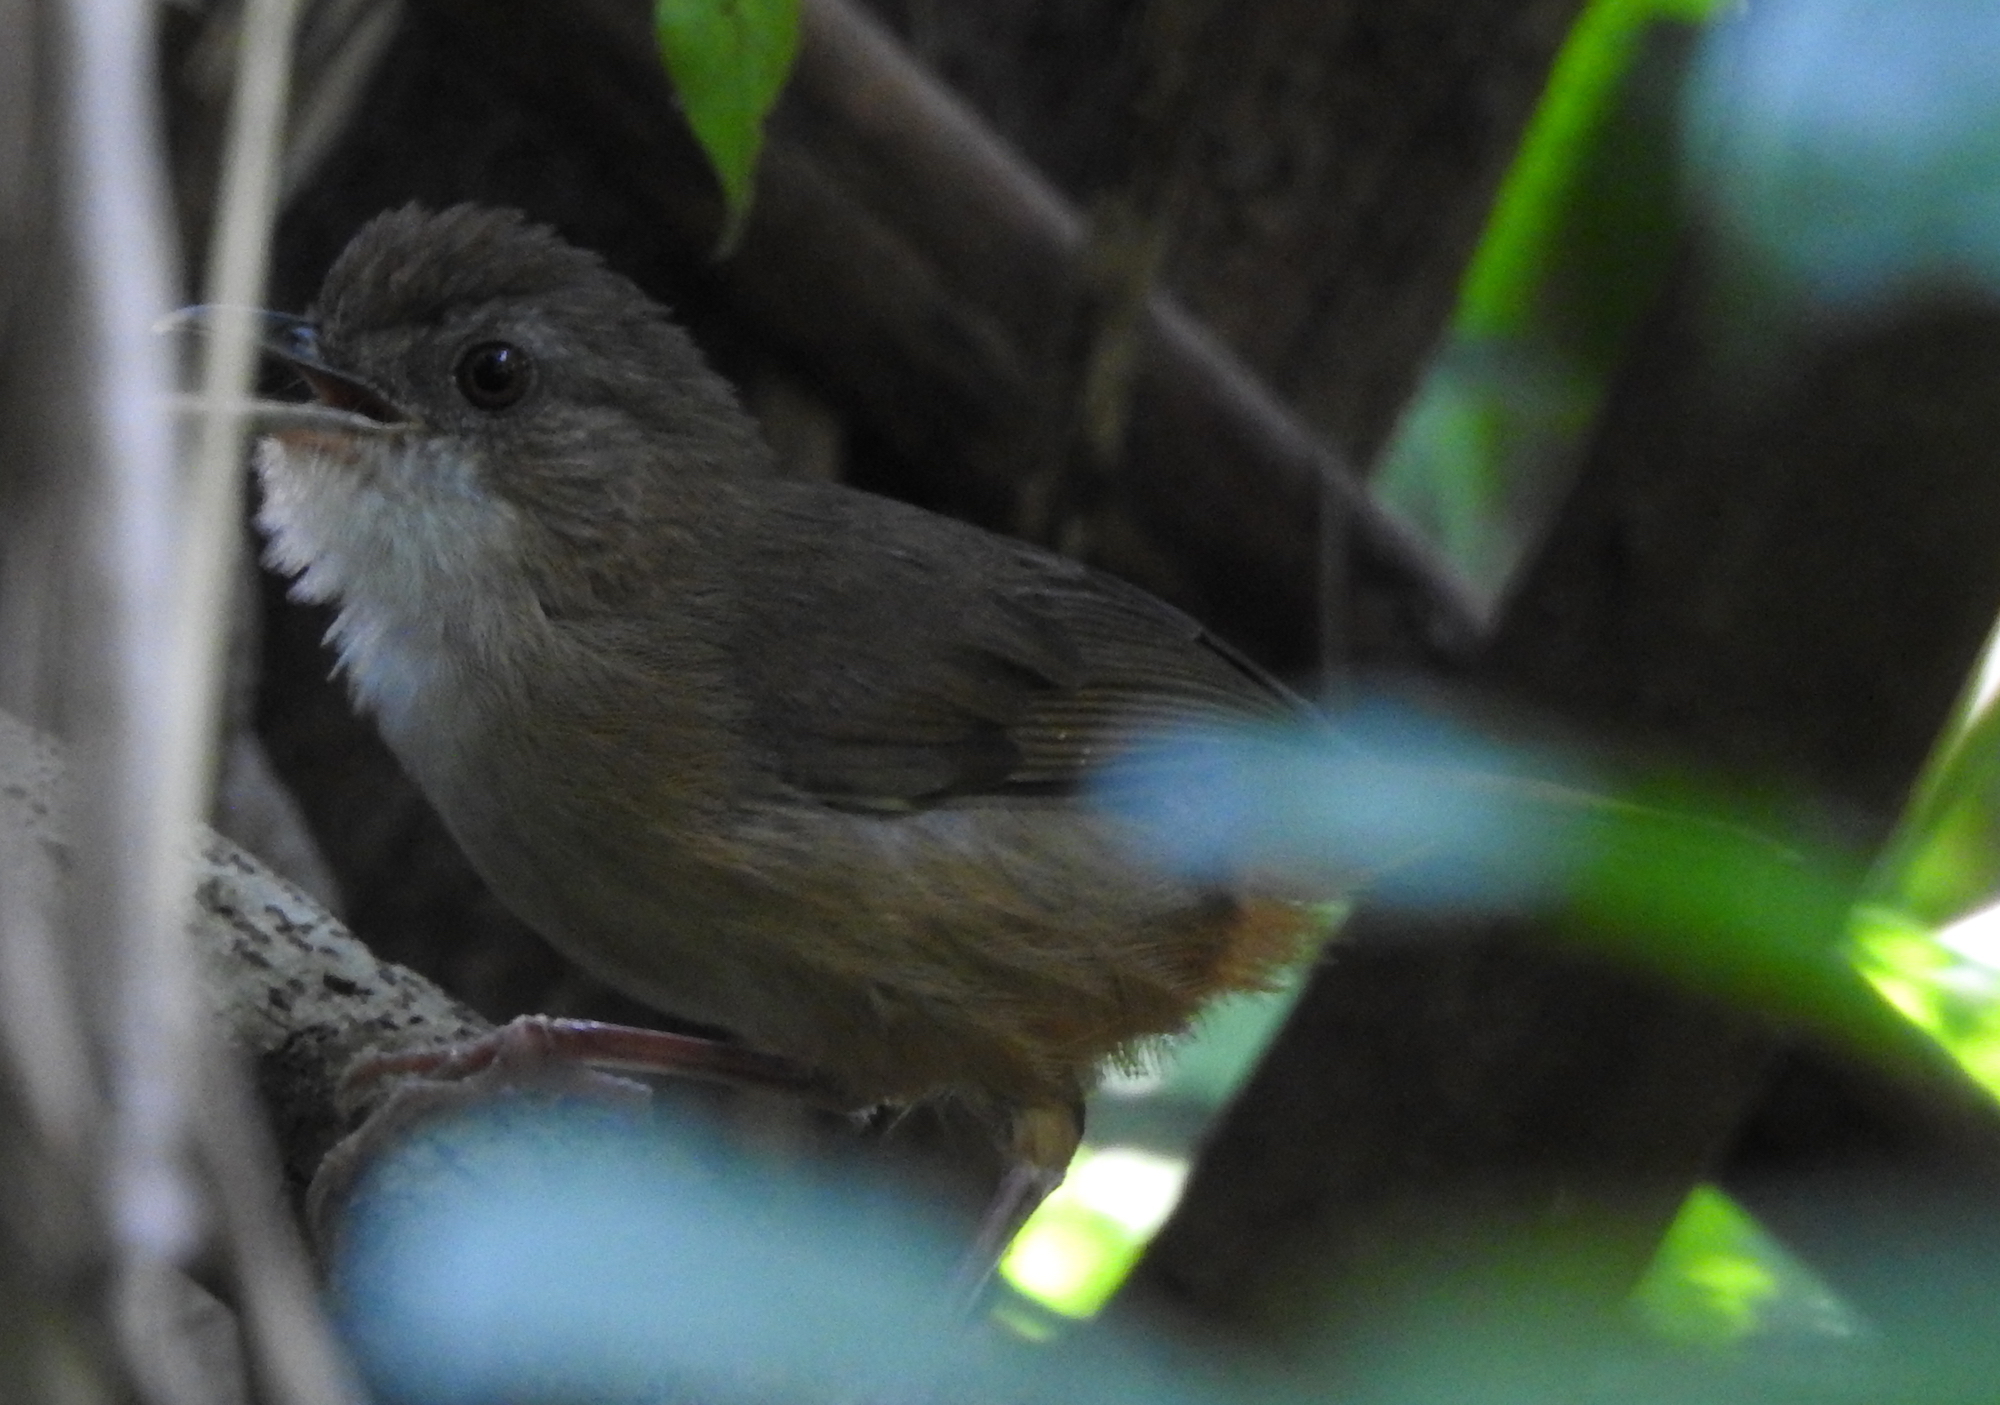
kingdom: Animalia
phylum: Chordata
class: Aves
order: Passeriformes
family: Pellorneidae
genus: Malacocincla
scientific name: Malacocincla sepiaria
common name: Horsfield's babbler
